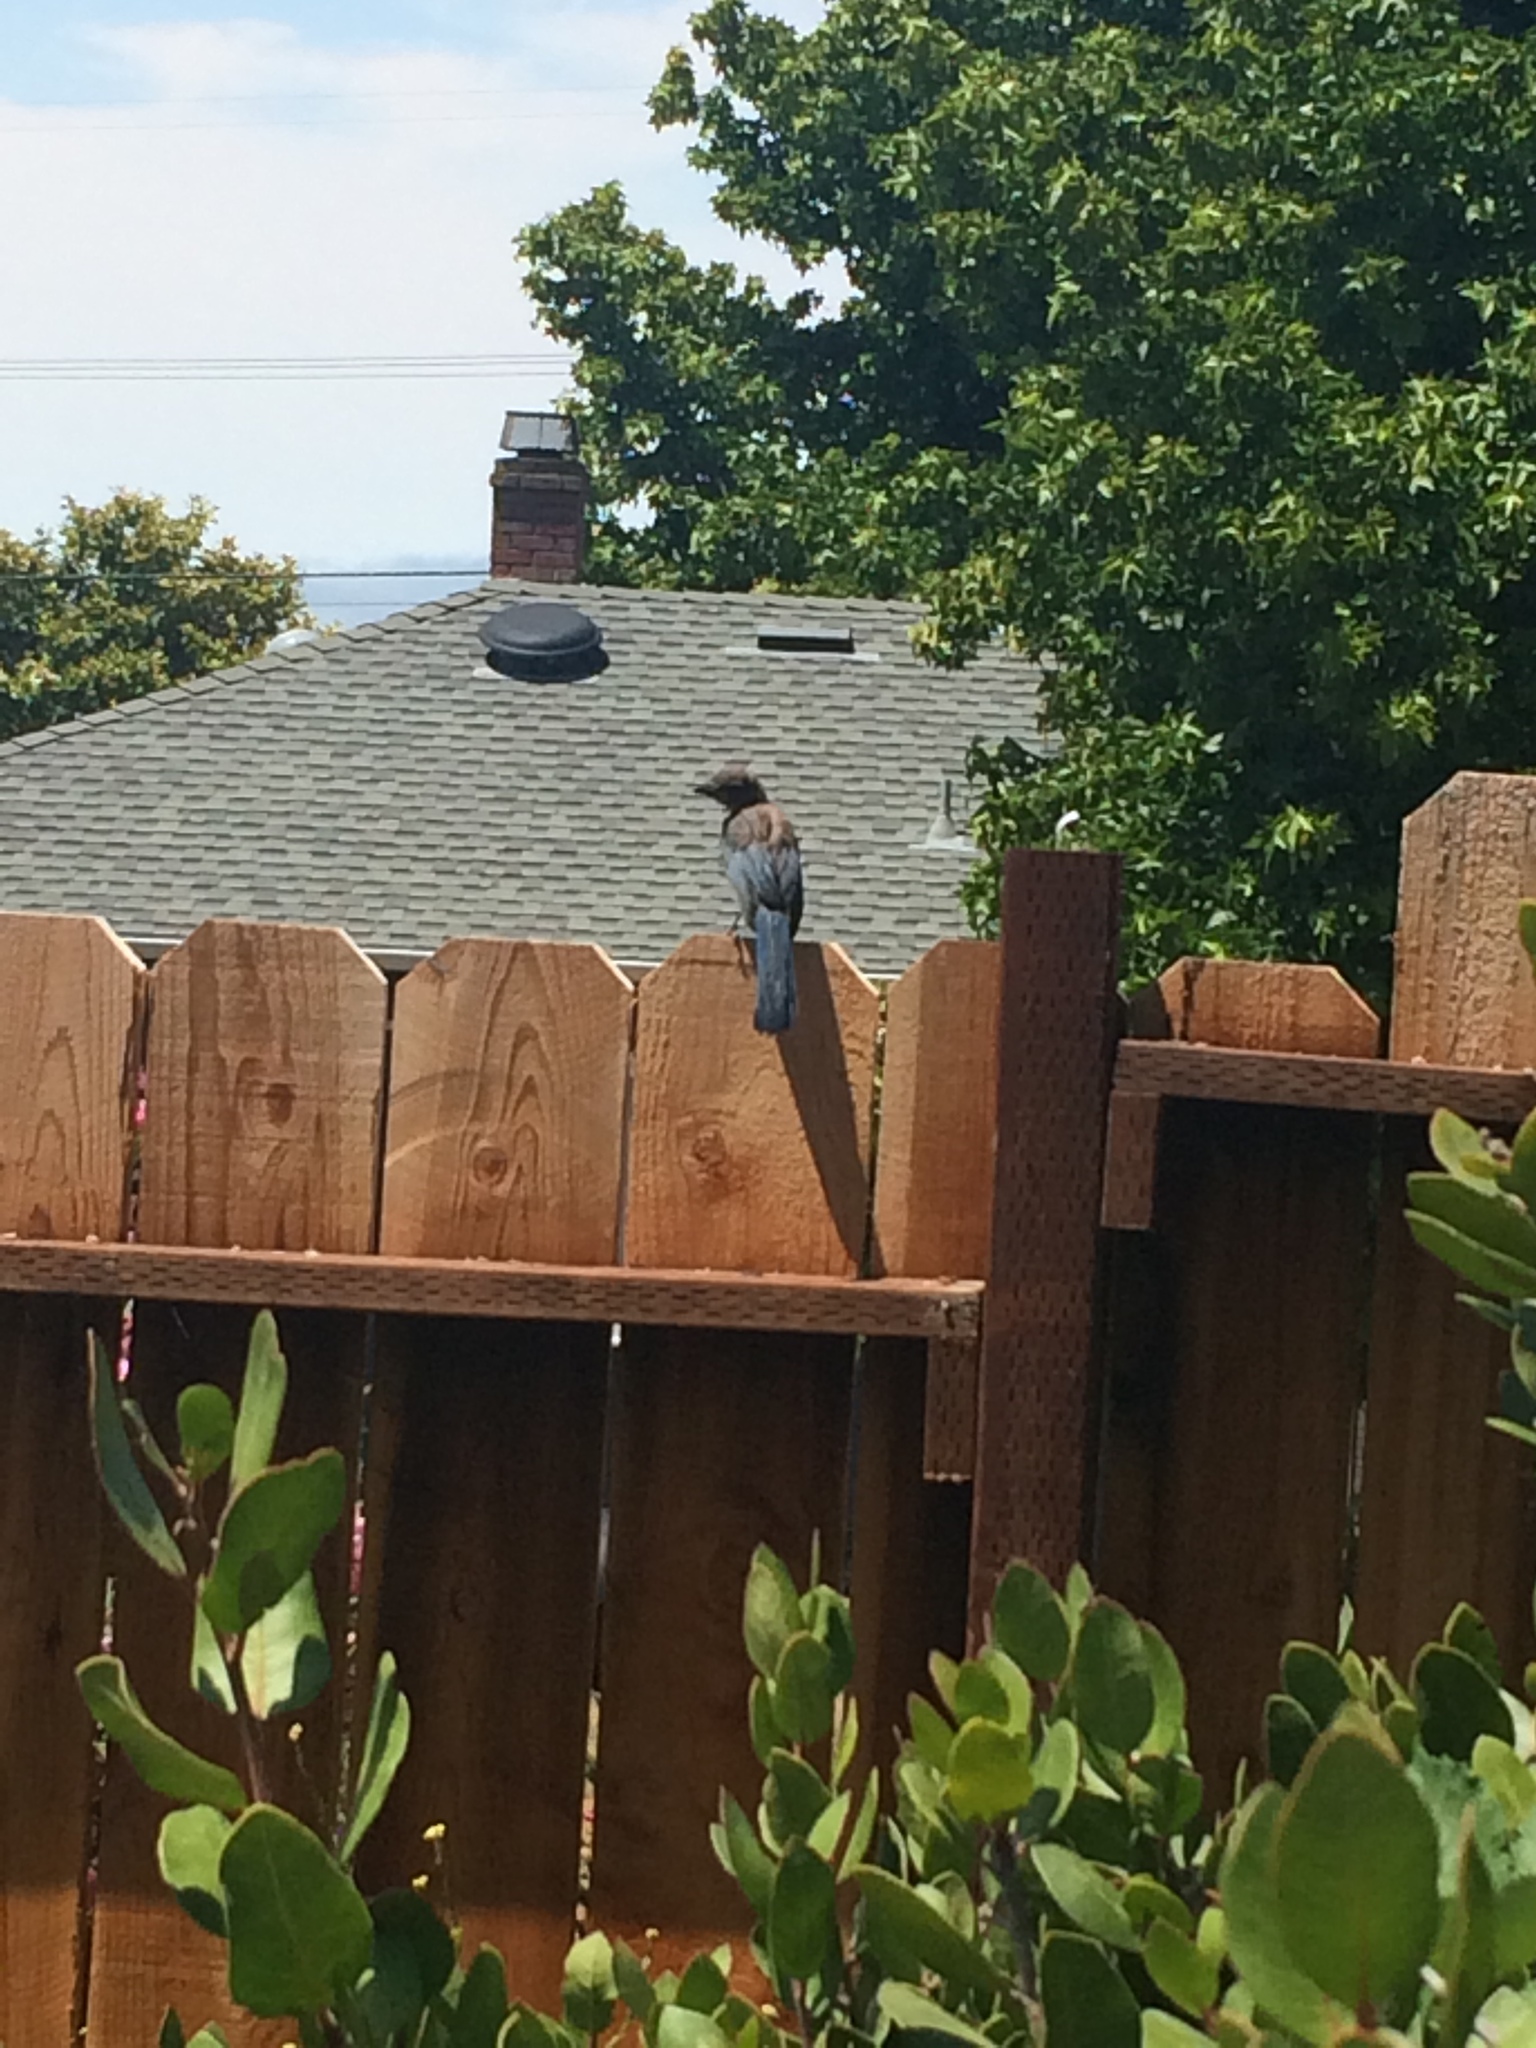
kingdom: Animalia
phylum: Chordata
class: Aves
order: Passeriformes
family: Corvidae
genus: Aphelocoma
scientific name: Aphelocoma californica
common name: California scrub-jay
